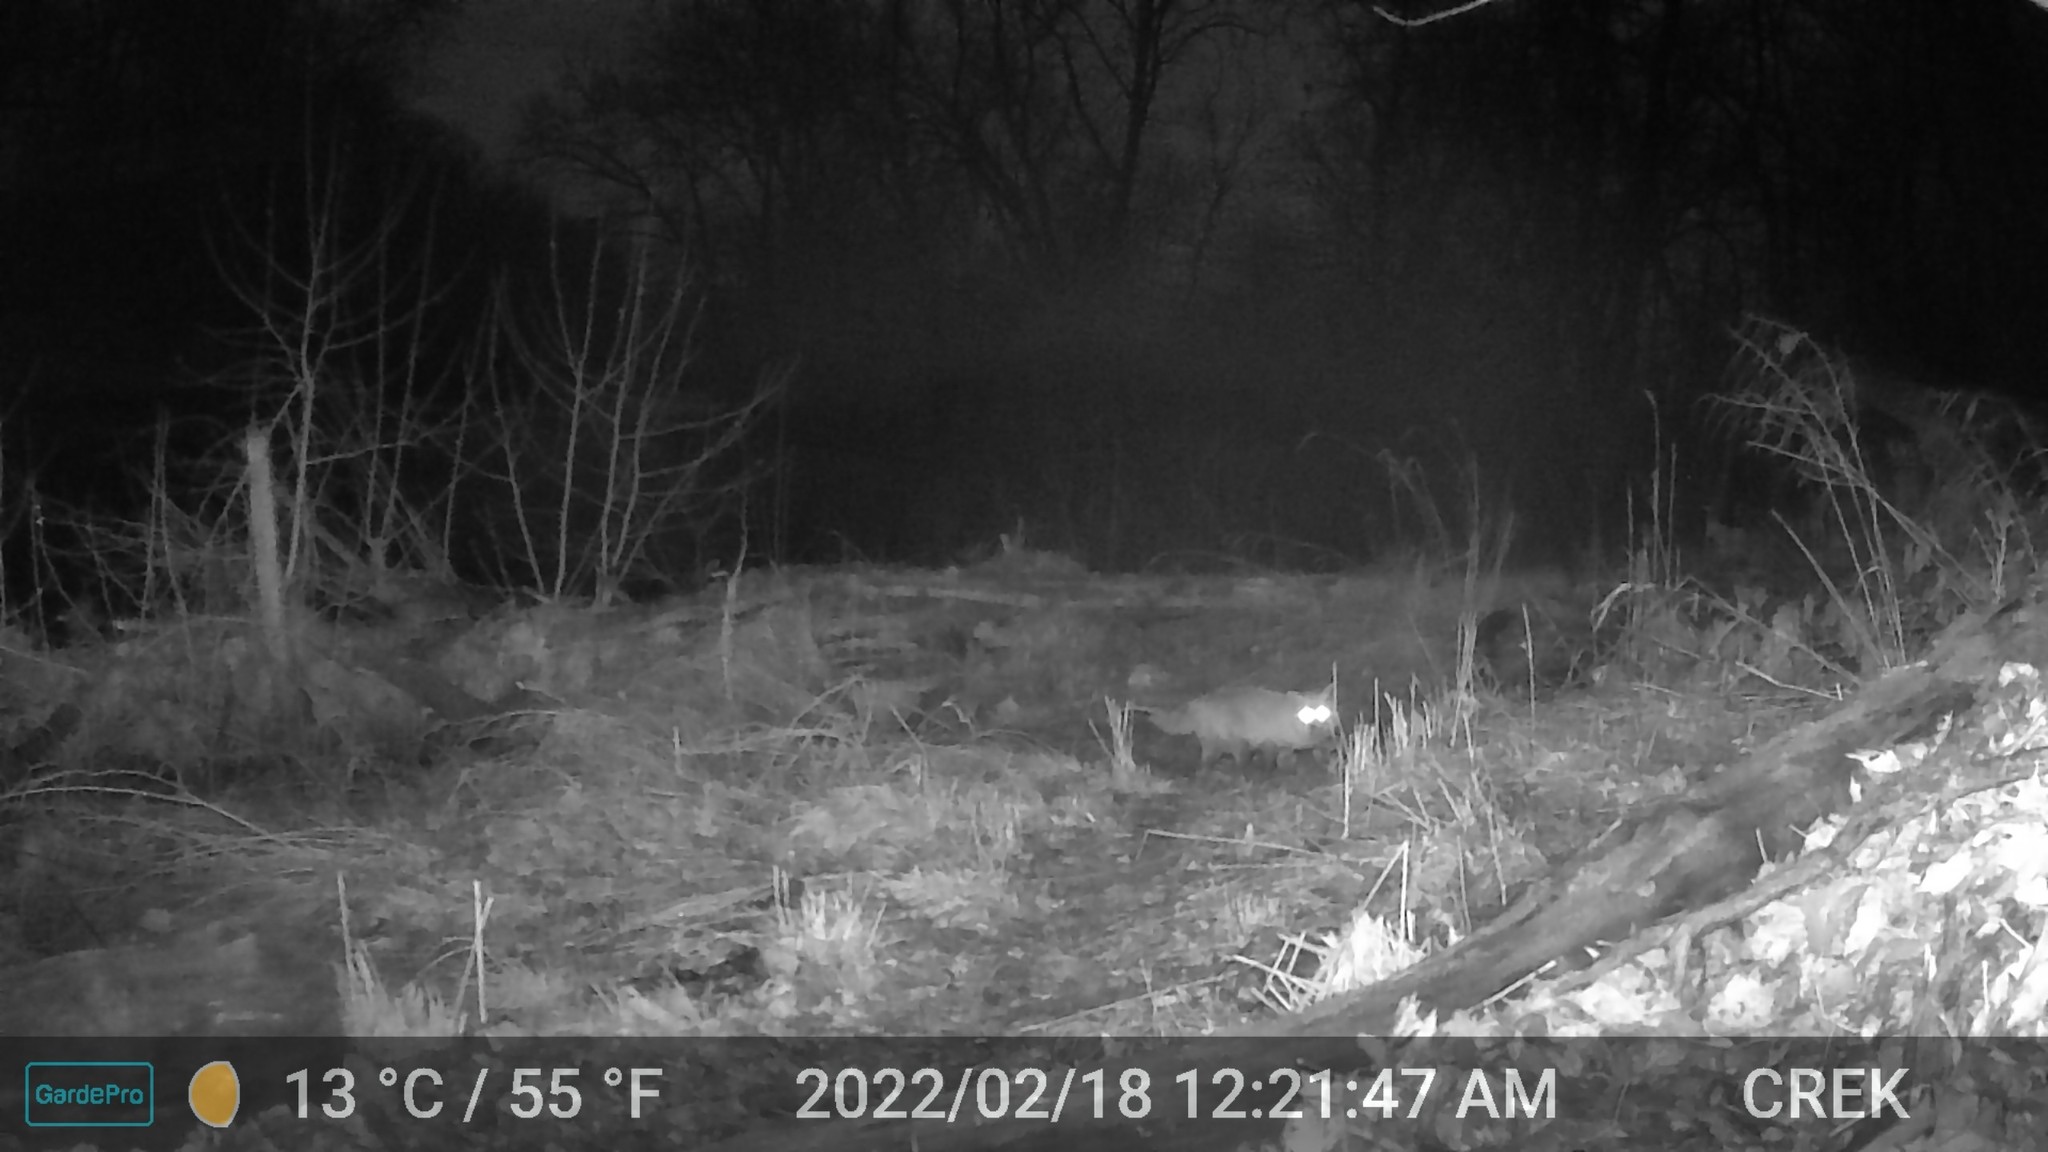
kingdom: Animalia
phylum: Chordata
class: Mammalia
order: Carnivora
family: Canidae
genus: Vulpes
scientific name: Vulpes vulpes
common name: Red fox
